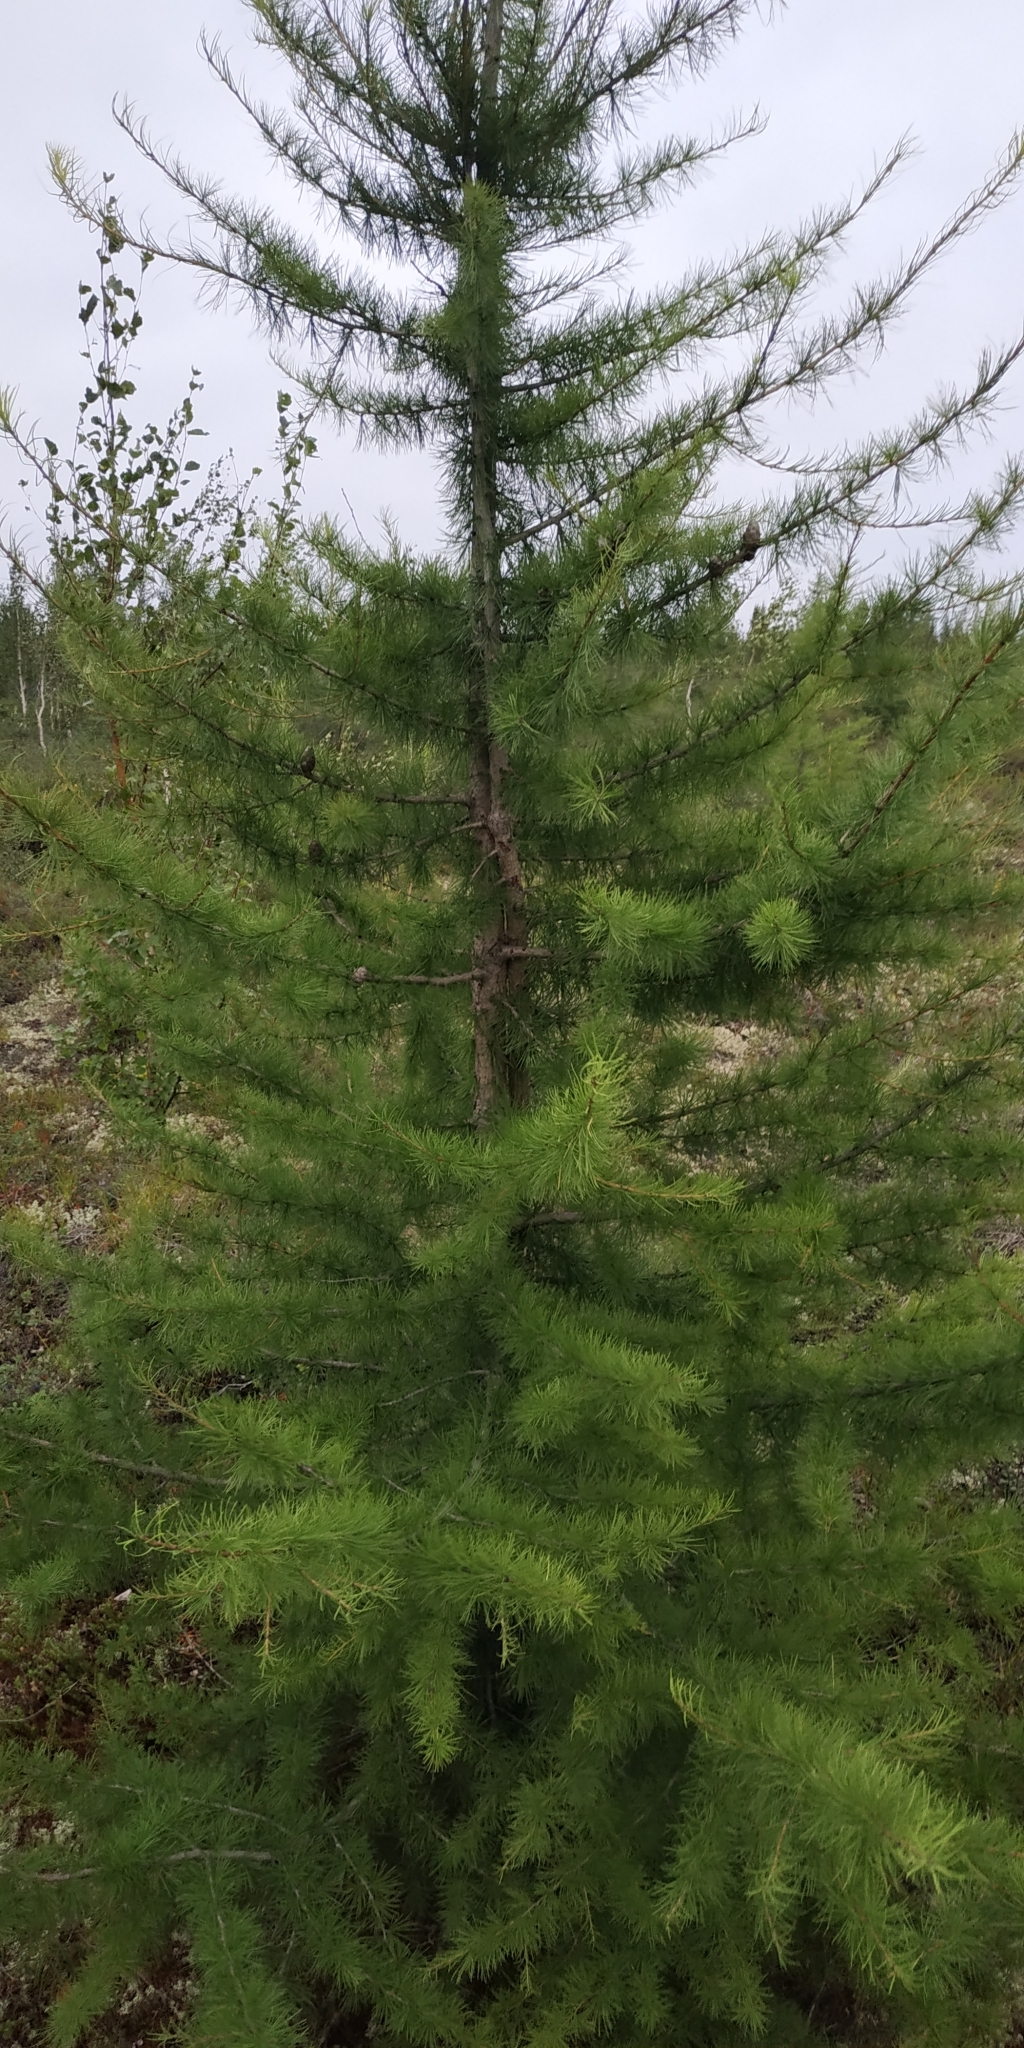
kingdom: Plantae
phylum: Tracheophyta
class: Pinopsida
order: Pinales
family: Pinaceae
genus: Larix
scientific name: Larix sibirica
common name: Siberian larch
